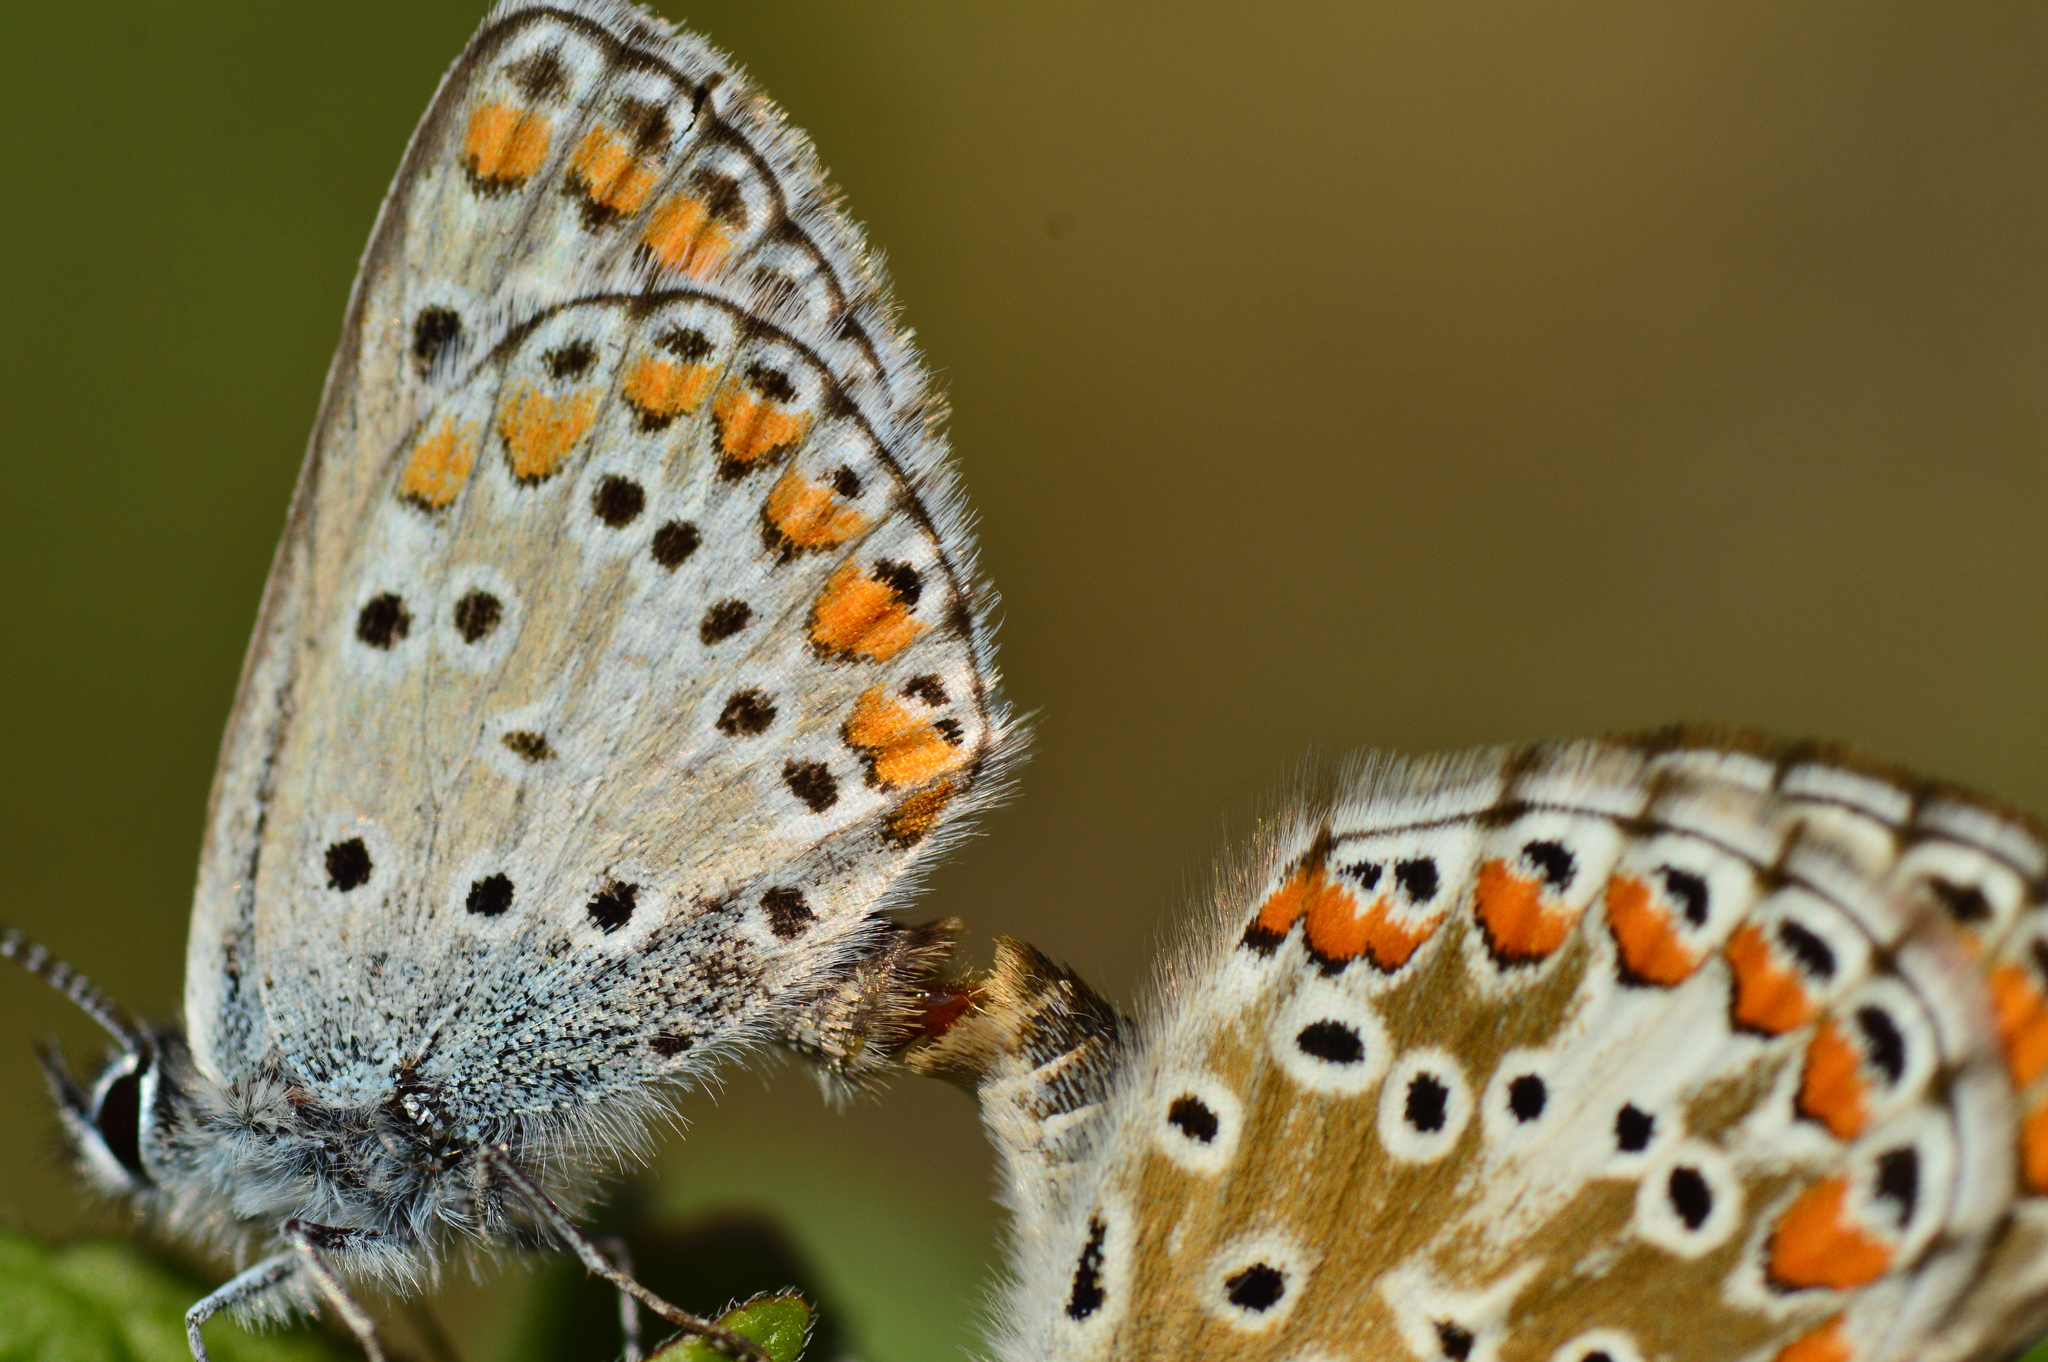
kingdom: Animalia
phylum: Arthropoda
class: Insecta
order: Lepidoptera
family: Lycaenidae
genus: Aricia
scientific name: Aricia agestis
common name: Brown argus
